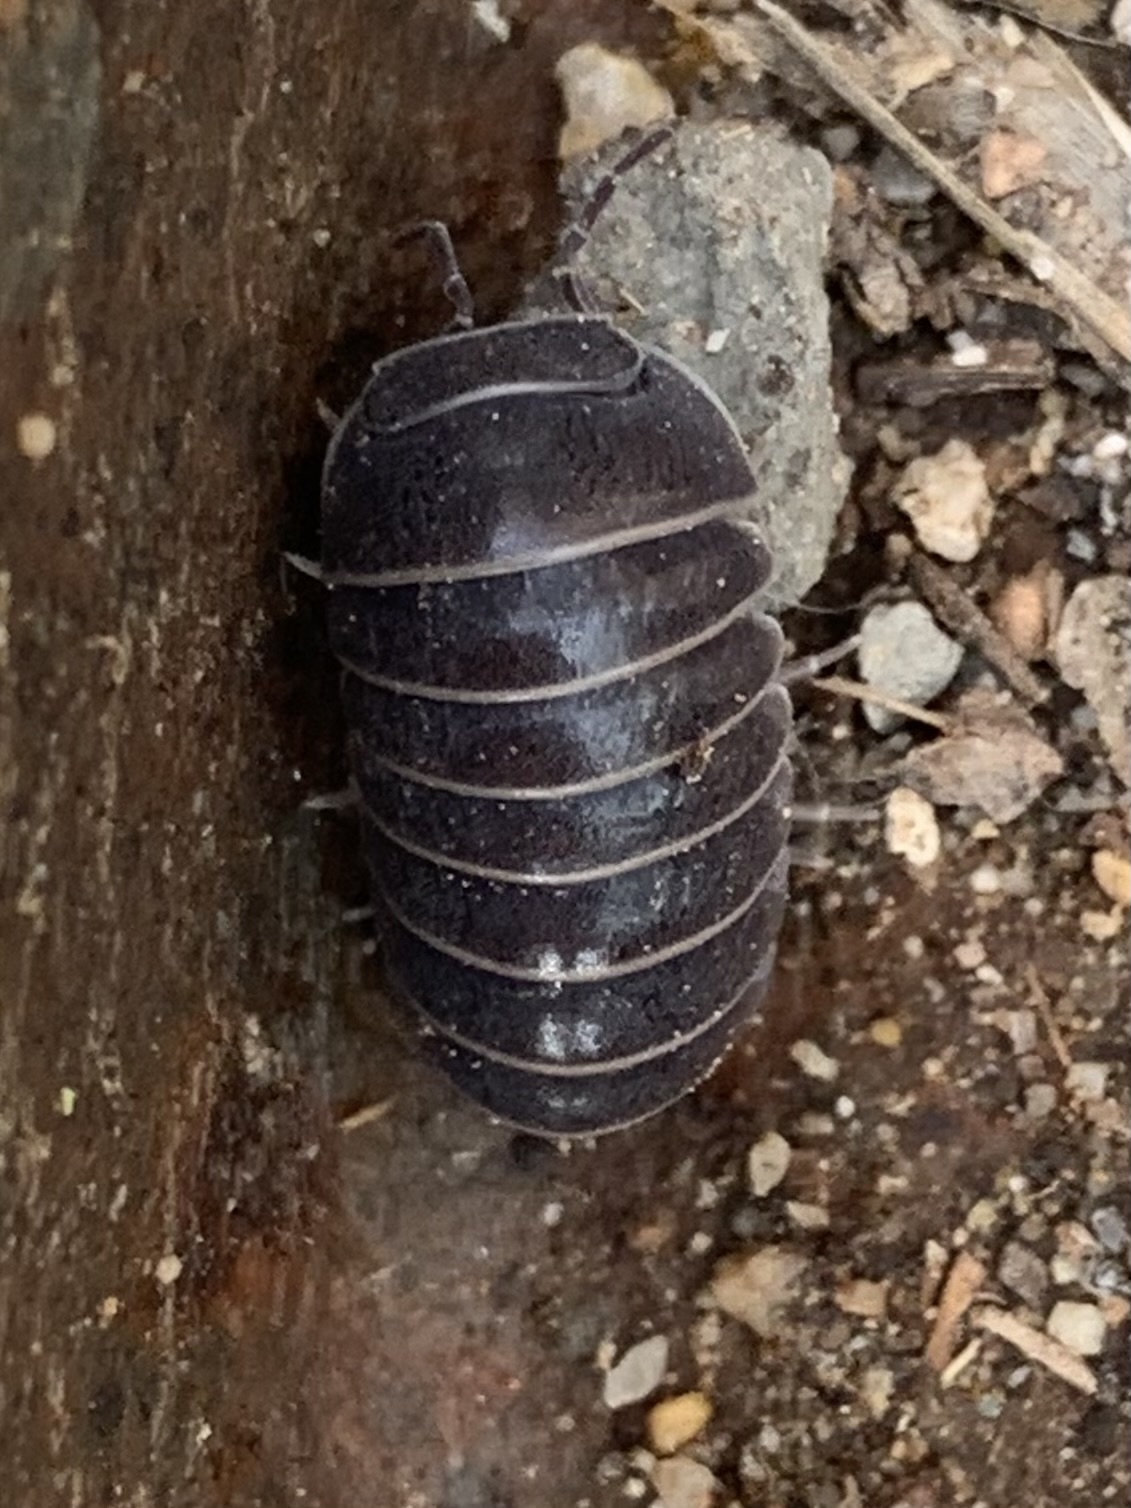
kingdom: Animalia
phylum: Arthropoda
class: Malacostraca
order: Isopoda
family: Armadillidae
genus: Armadillo
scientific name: Armadillo officinalis
